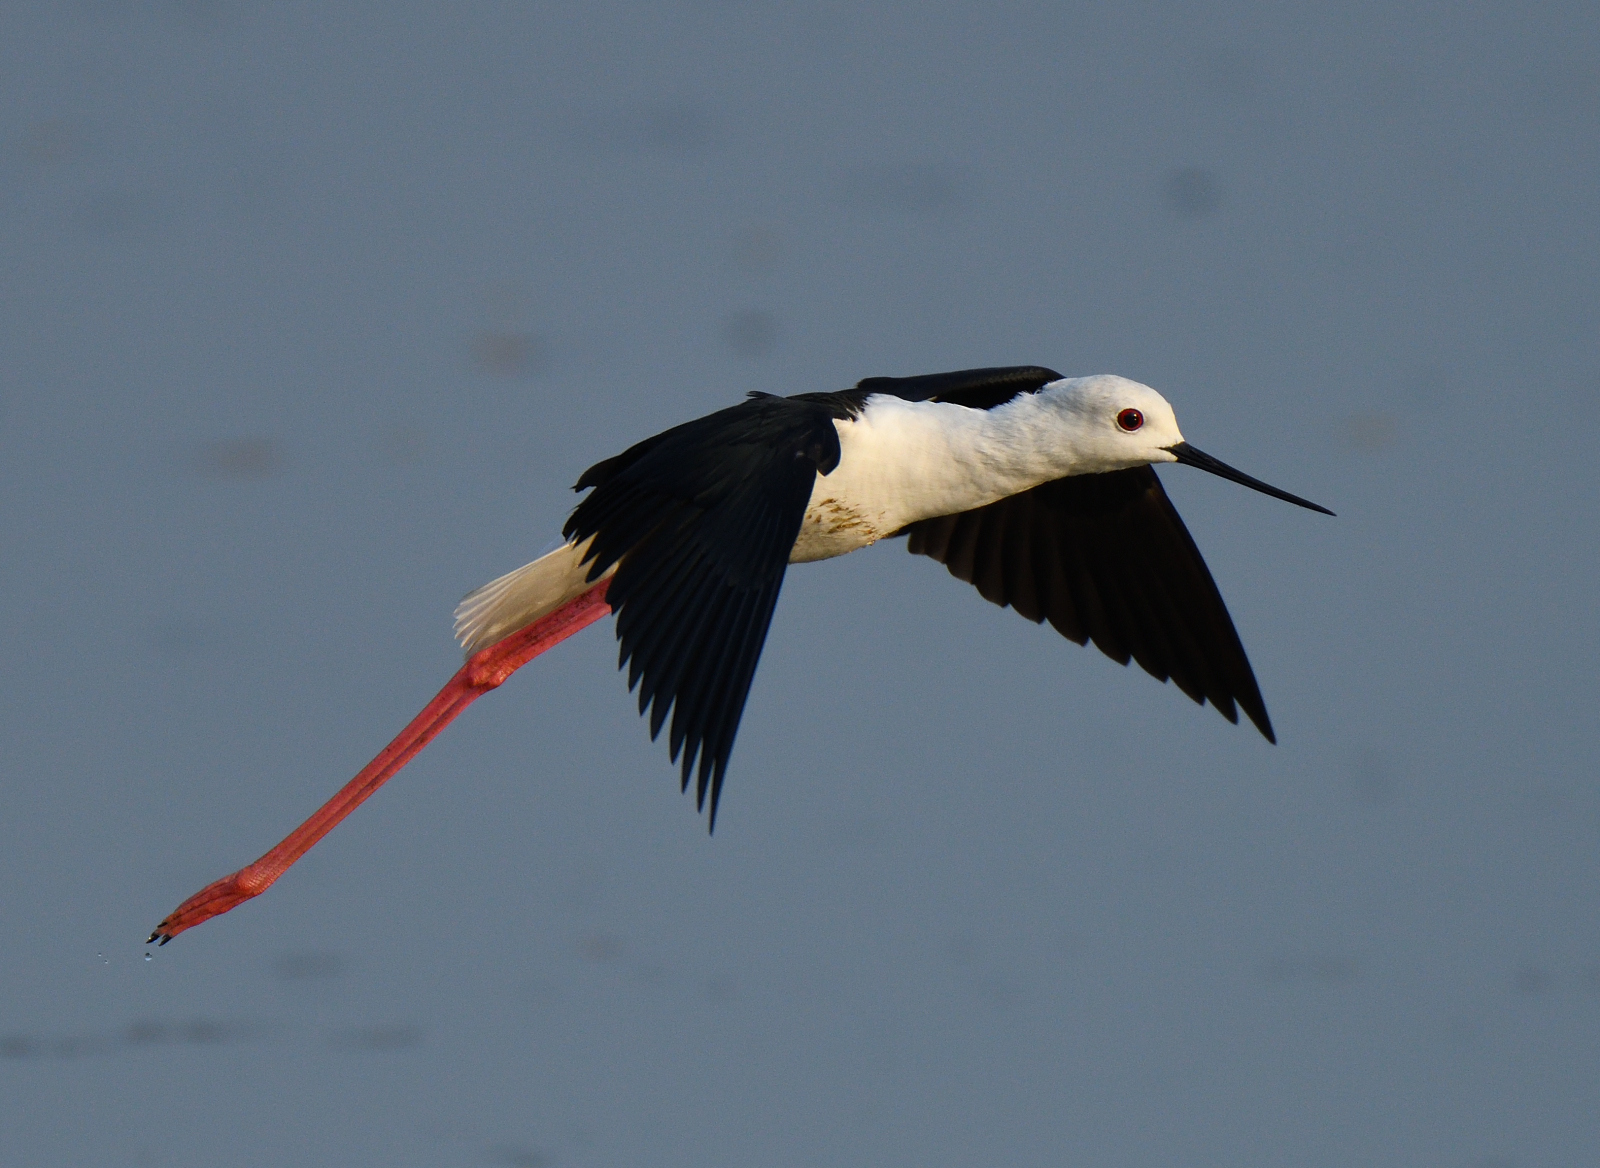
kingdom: Animalia
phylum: Chordata
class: Aves
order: Charadriiformes
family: Recurvirostridae
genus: Himantopus
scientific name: Himantopus himantopus
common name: Black-winged stilt
